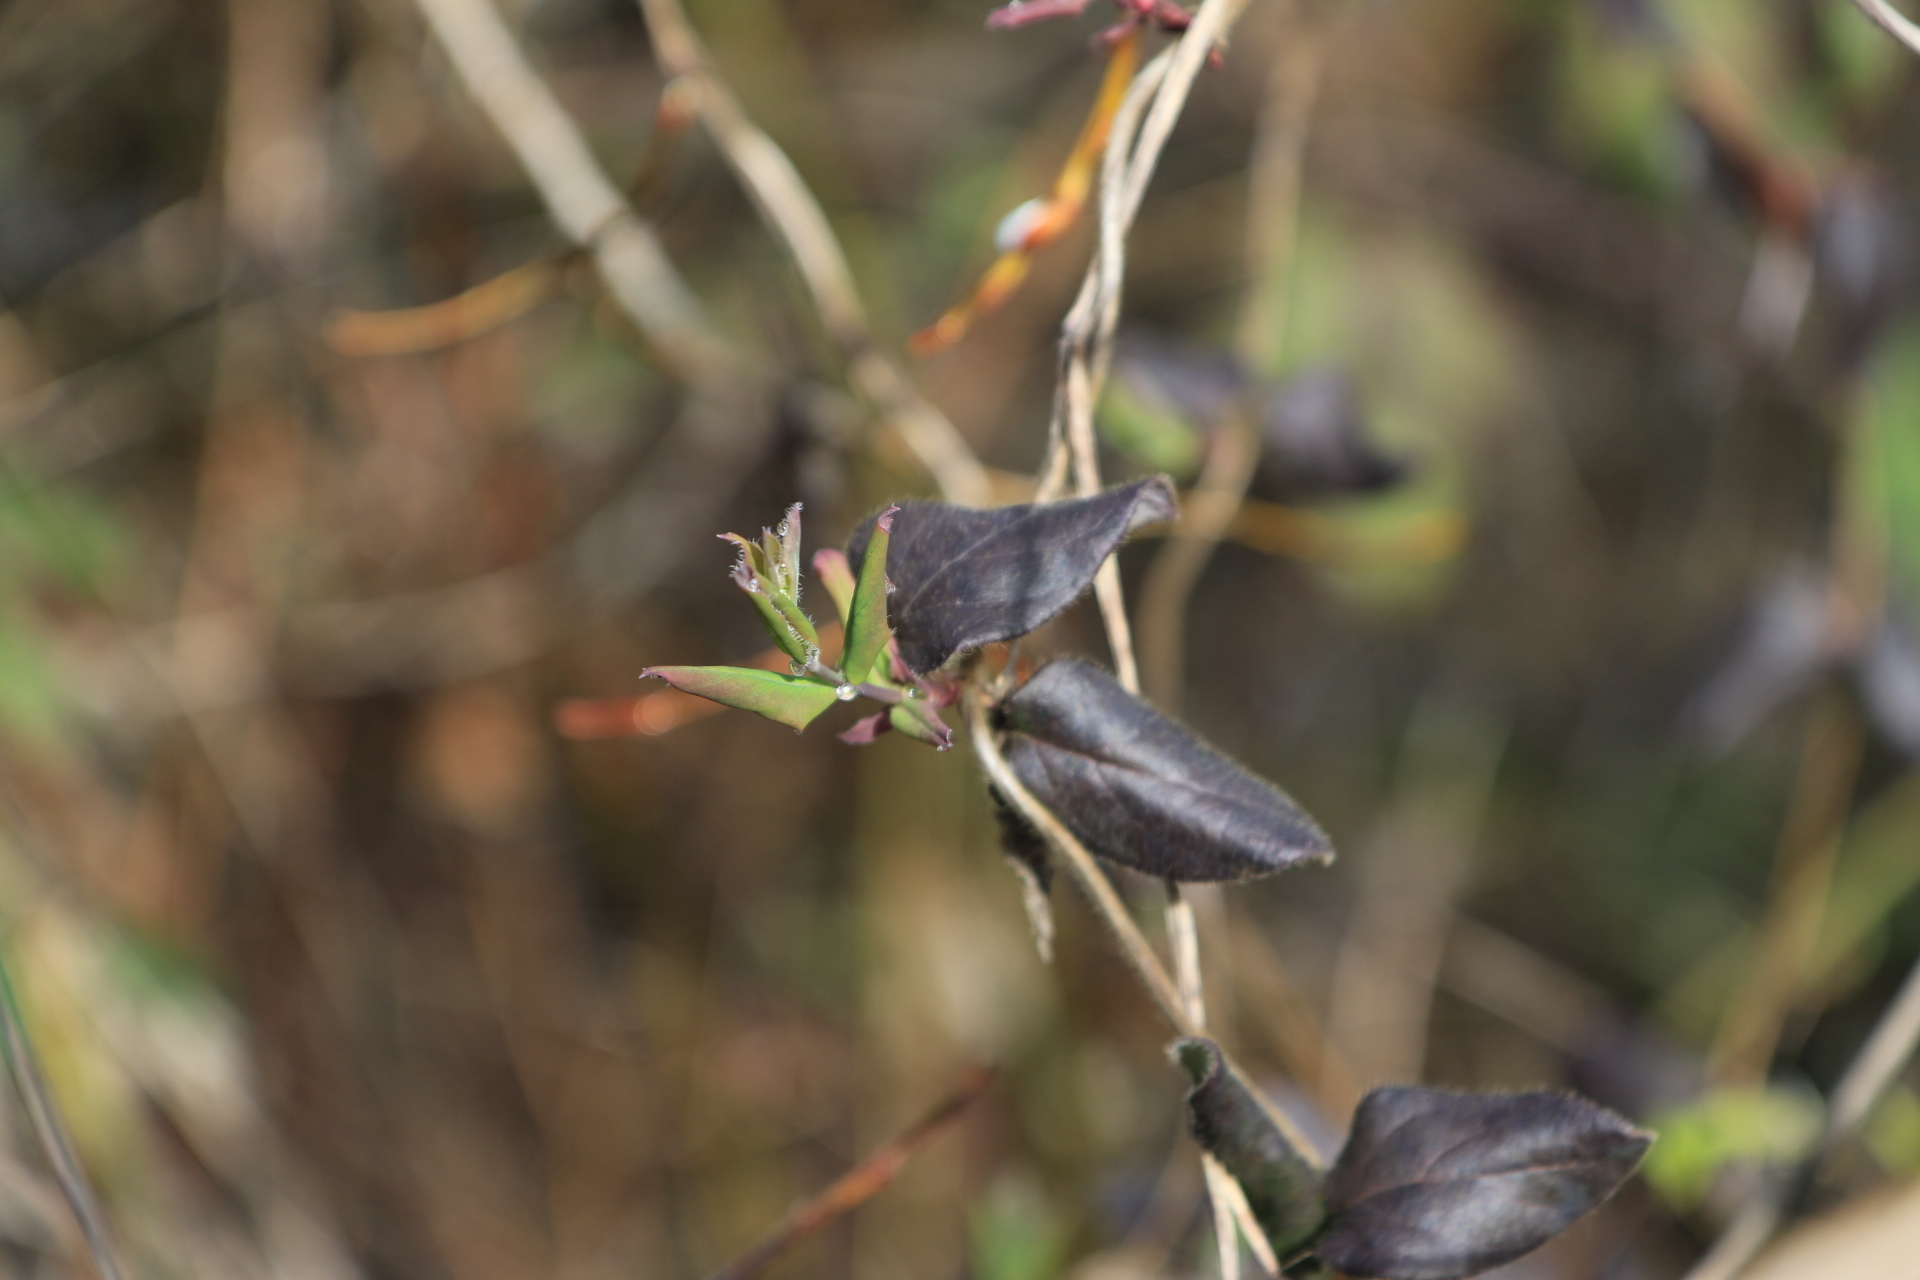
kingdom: Plantae
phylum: Tracheophyta
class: Magnoliopsida
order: Dipsacales
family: Caprifoliaceae
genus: Lonicera
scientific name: Lonicera hispidula
